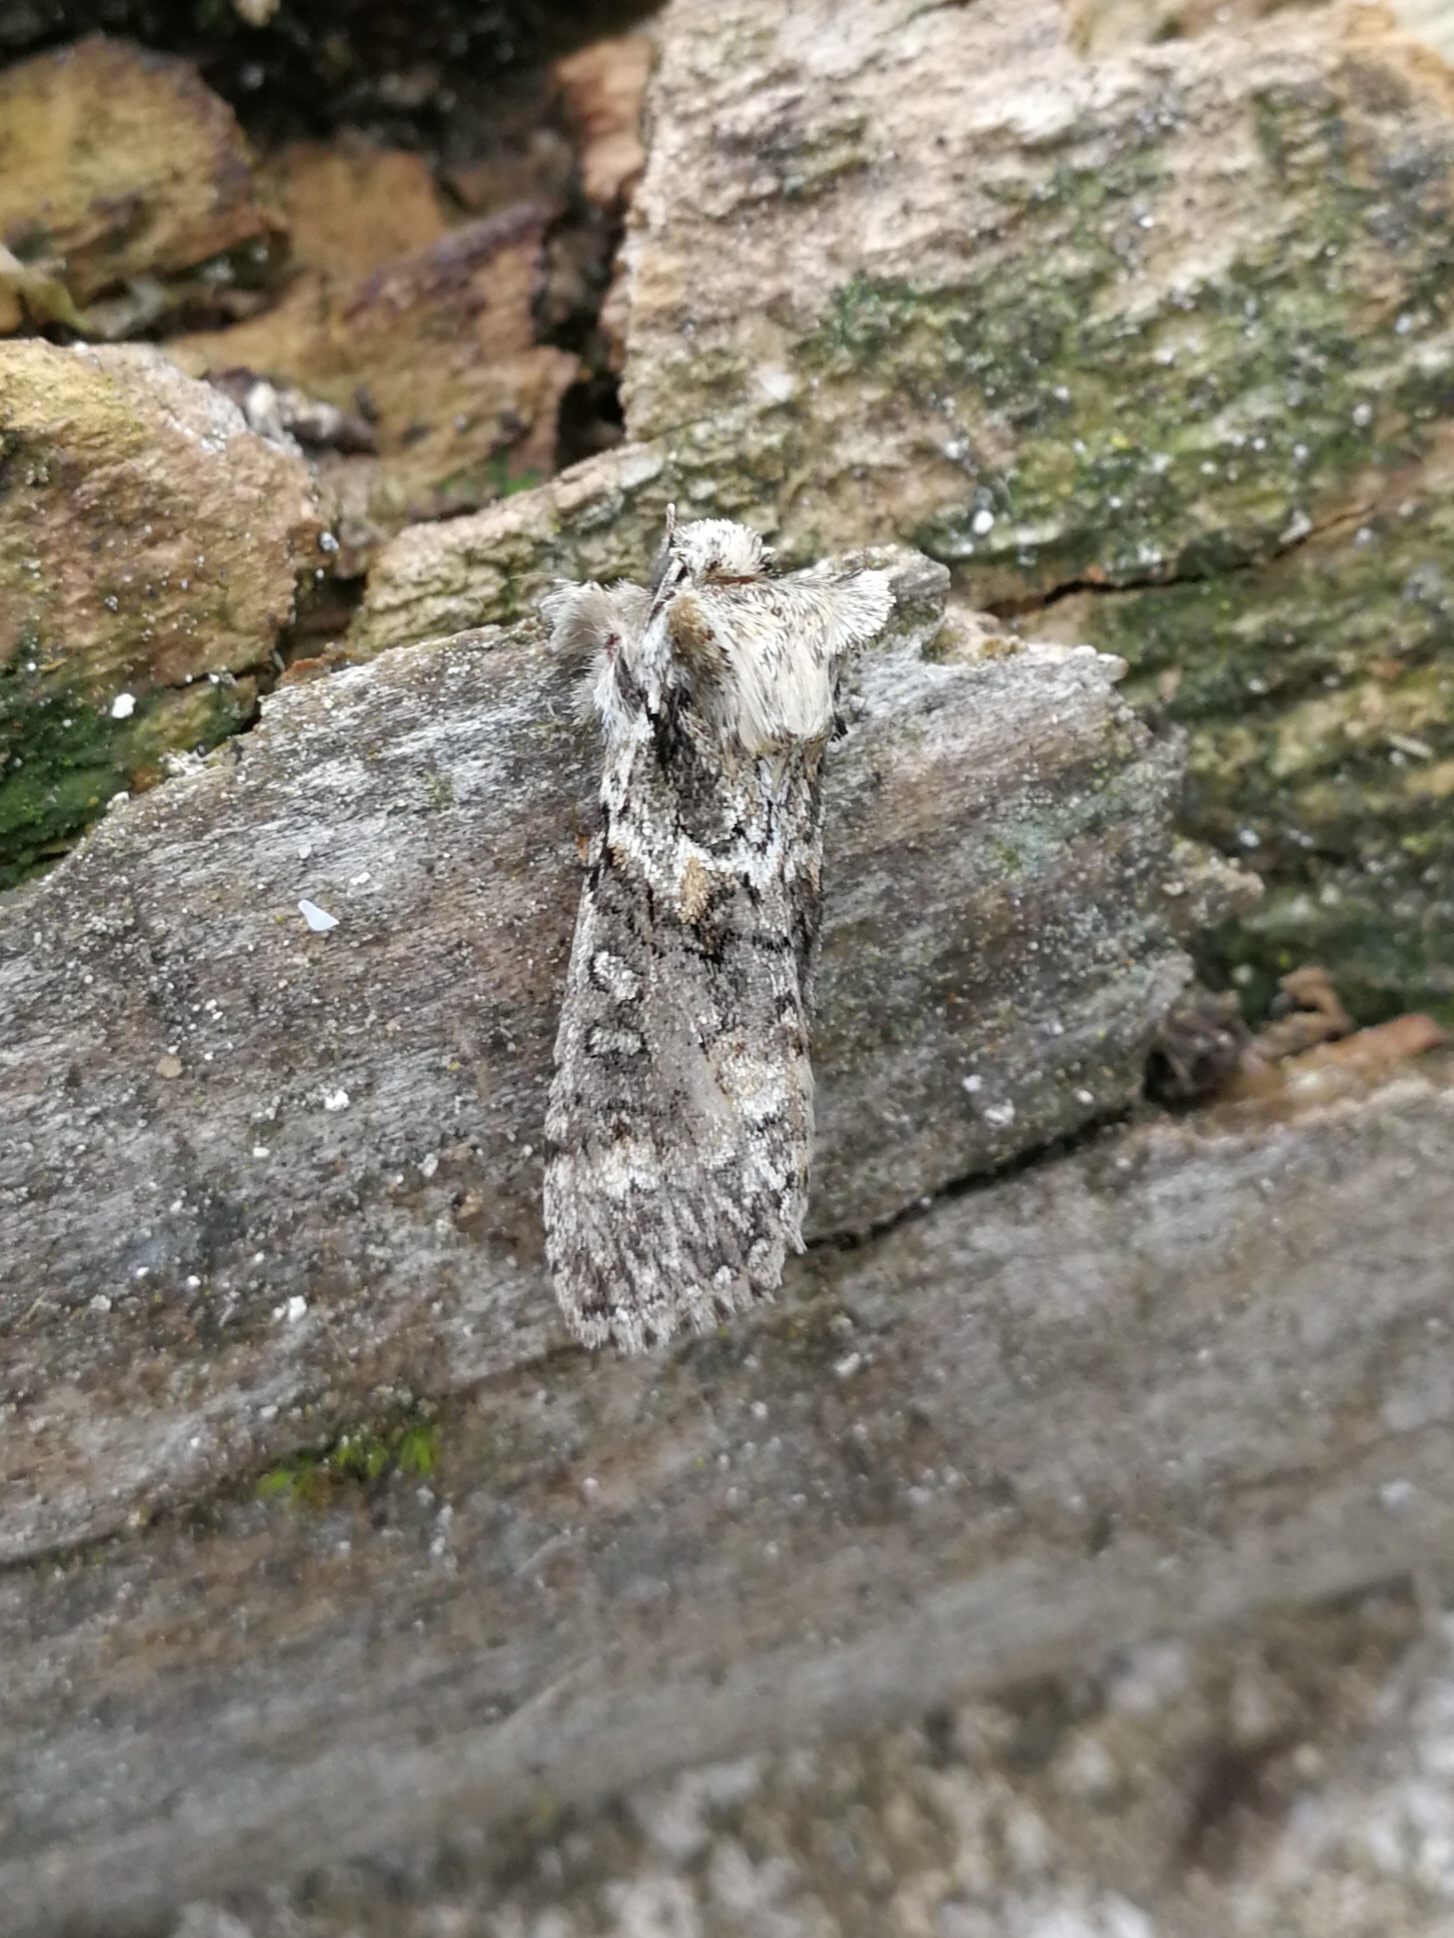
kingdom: Animalia
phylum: Arthropoda
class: Insecta
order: Lepidoptera
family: Drepanidae
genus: Polyploca
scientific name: Polyploca ridens
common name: Frosted green
